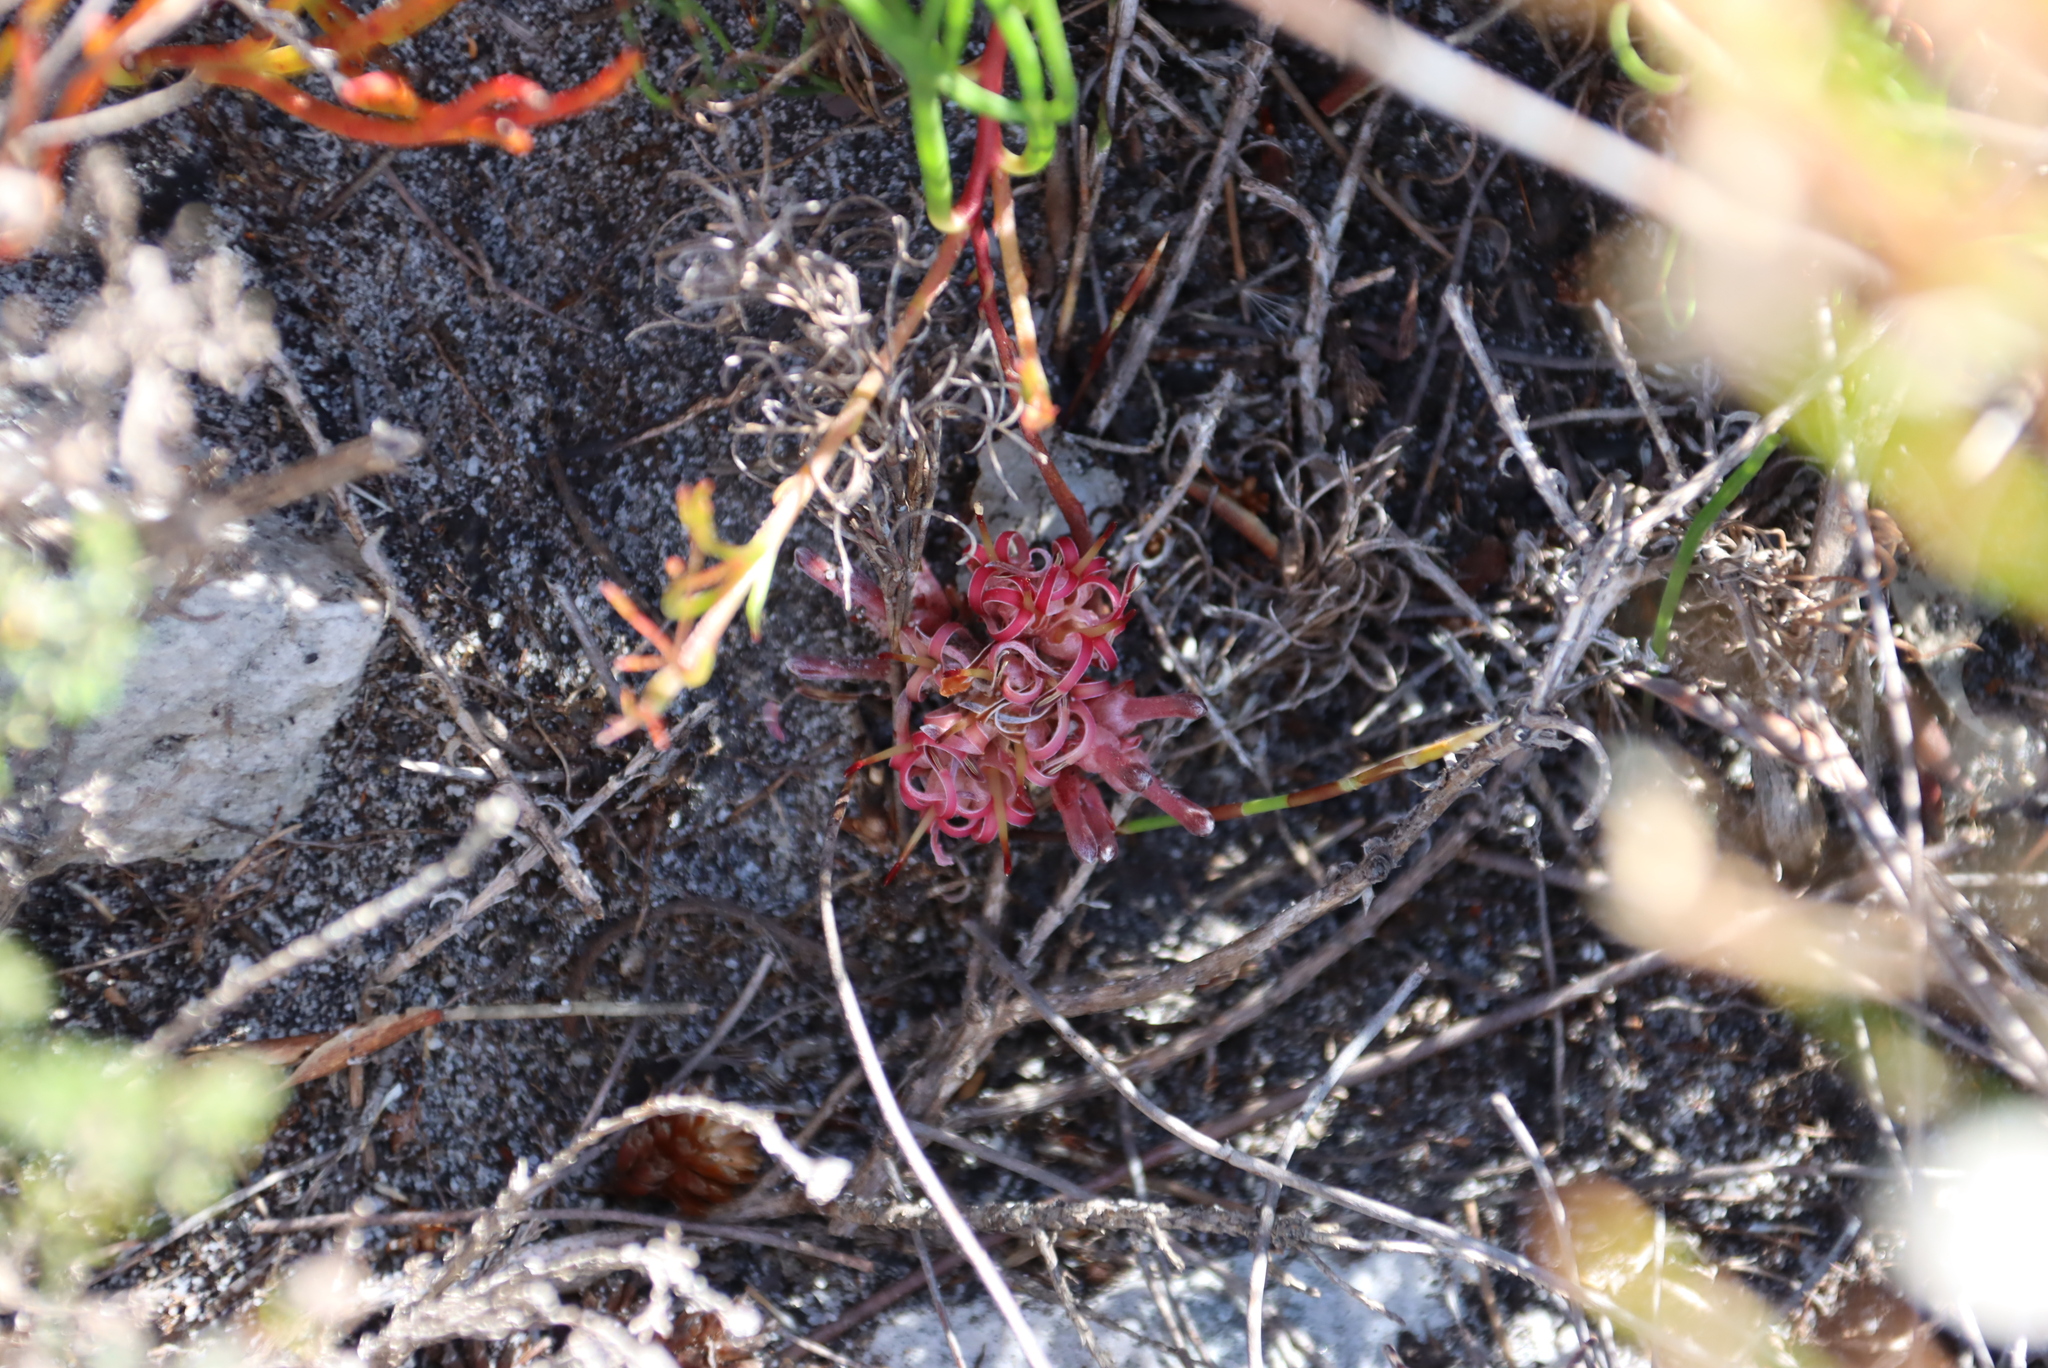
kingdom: Plantae
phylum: Tracheophyta
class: Magnoliopsida
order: Proteales
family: Proteaceae
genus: Serruria
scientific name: Serruria decumbens
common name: Peninsula spiderhead
